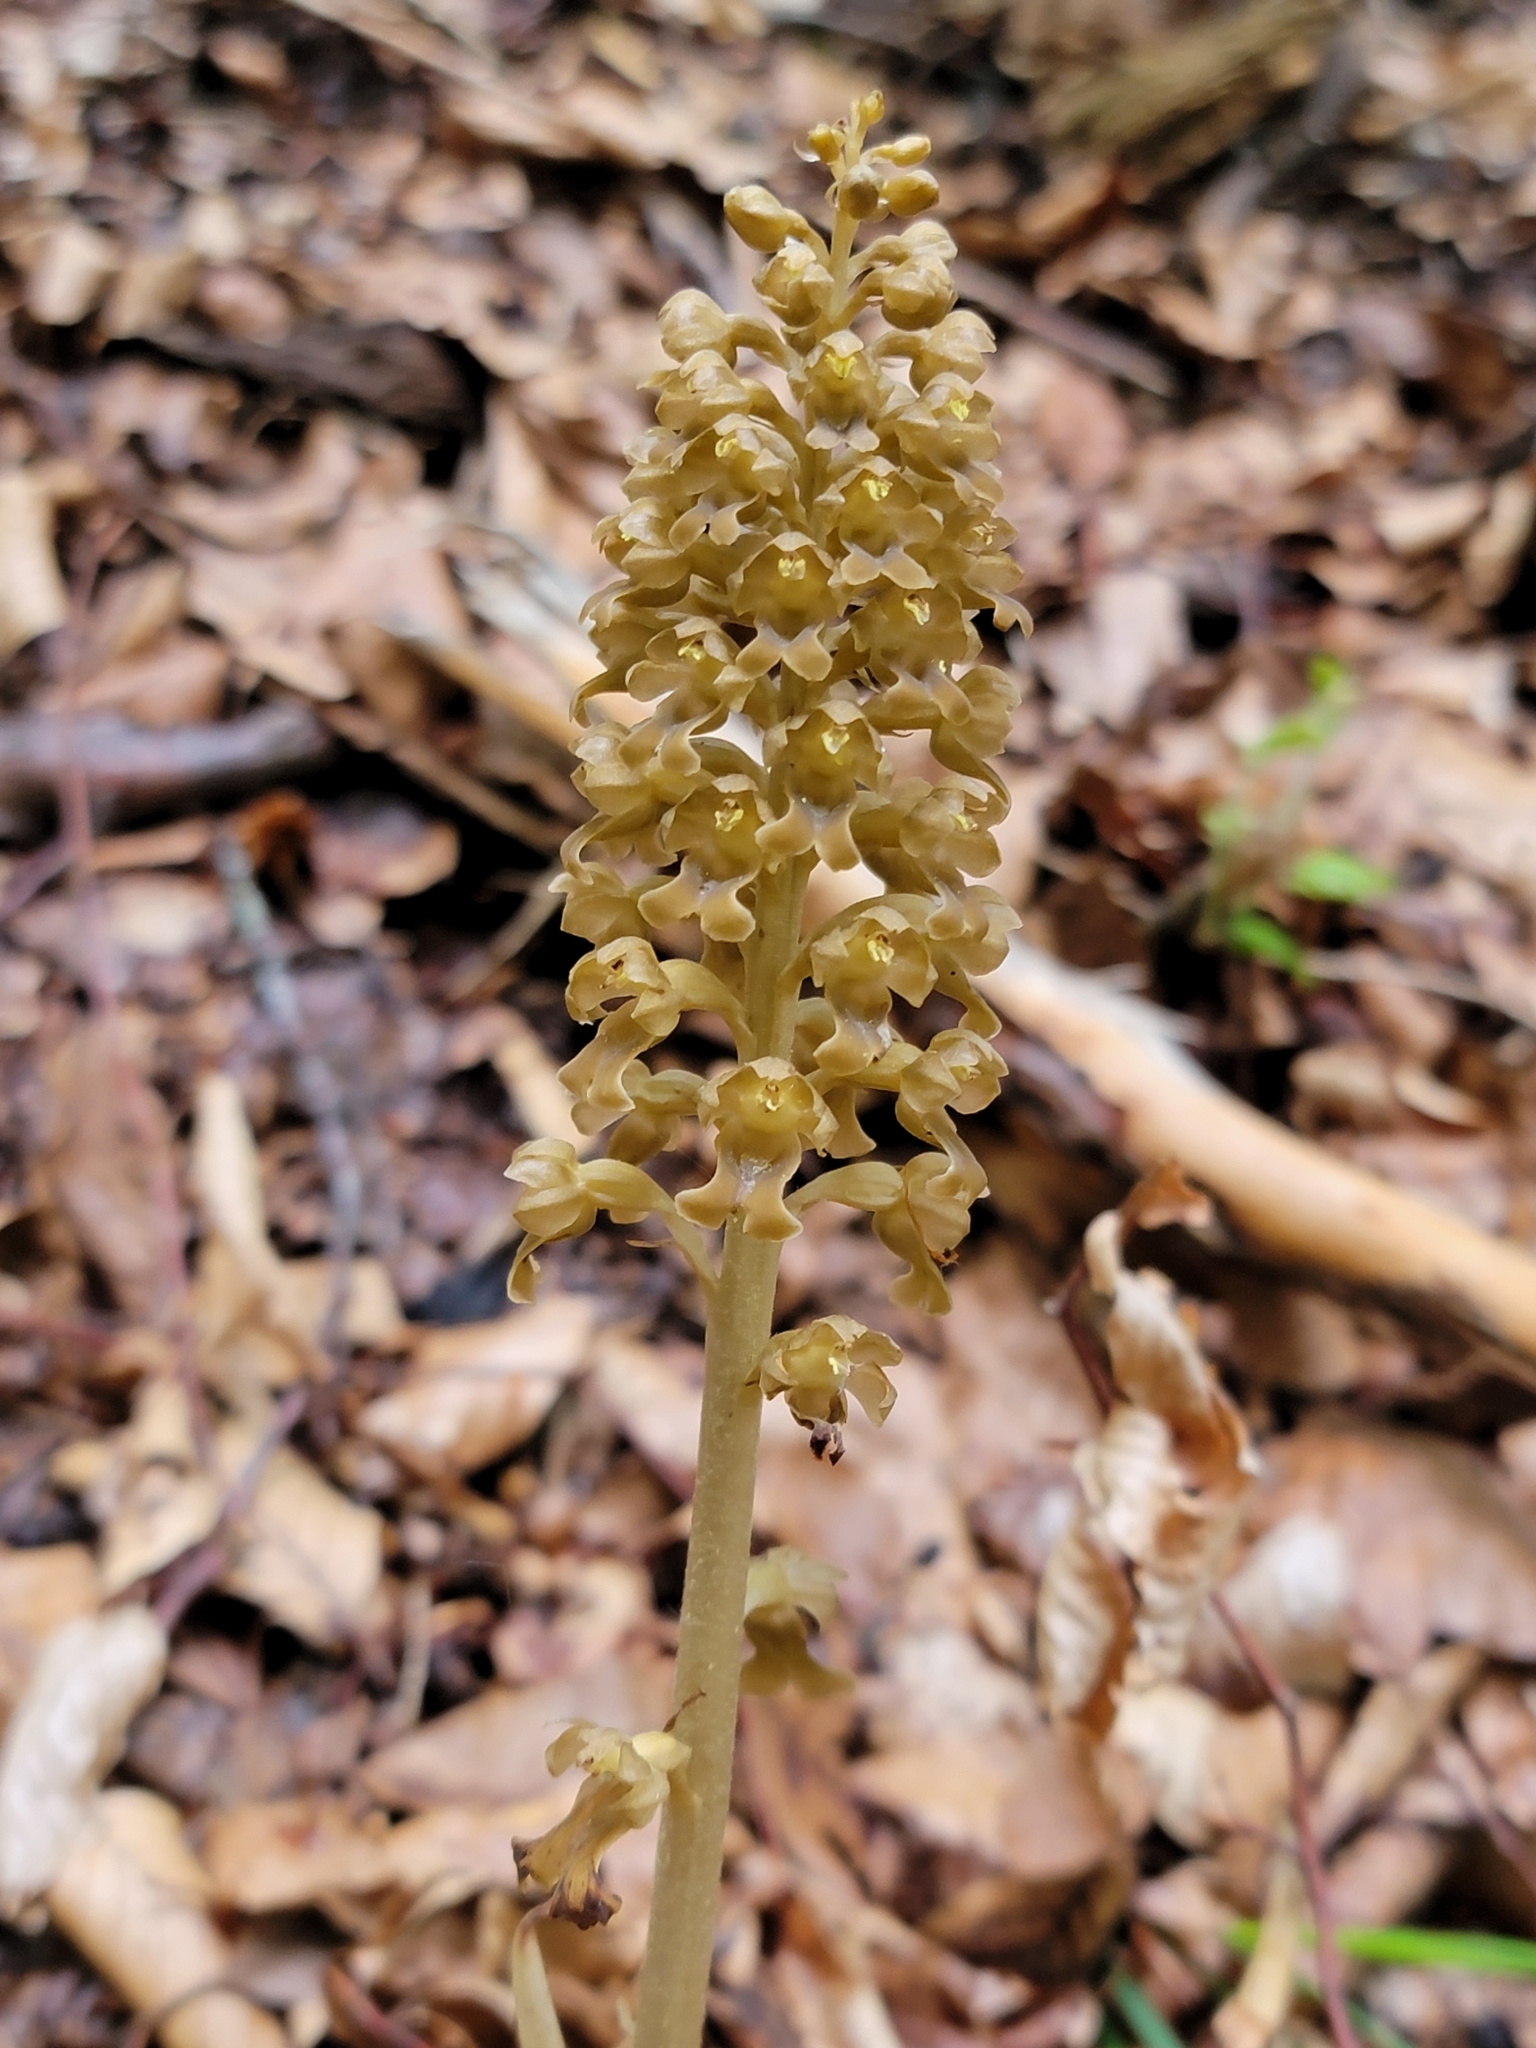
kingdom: Plantae
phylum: Tracheophyta
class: Liliopsida
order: Asparagales
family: Orchidaceae
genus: Neottia
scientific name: Neottia nidus-avis
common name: Bird's-nest orchid
